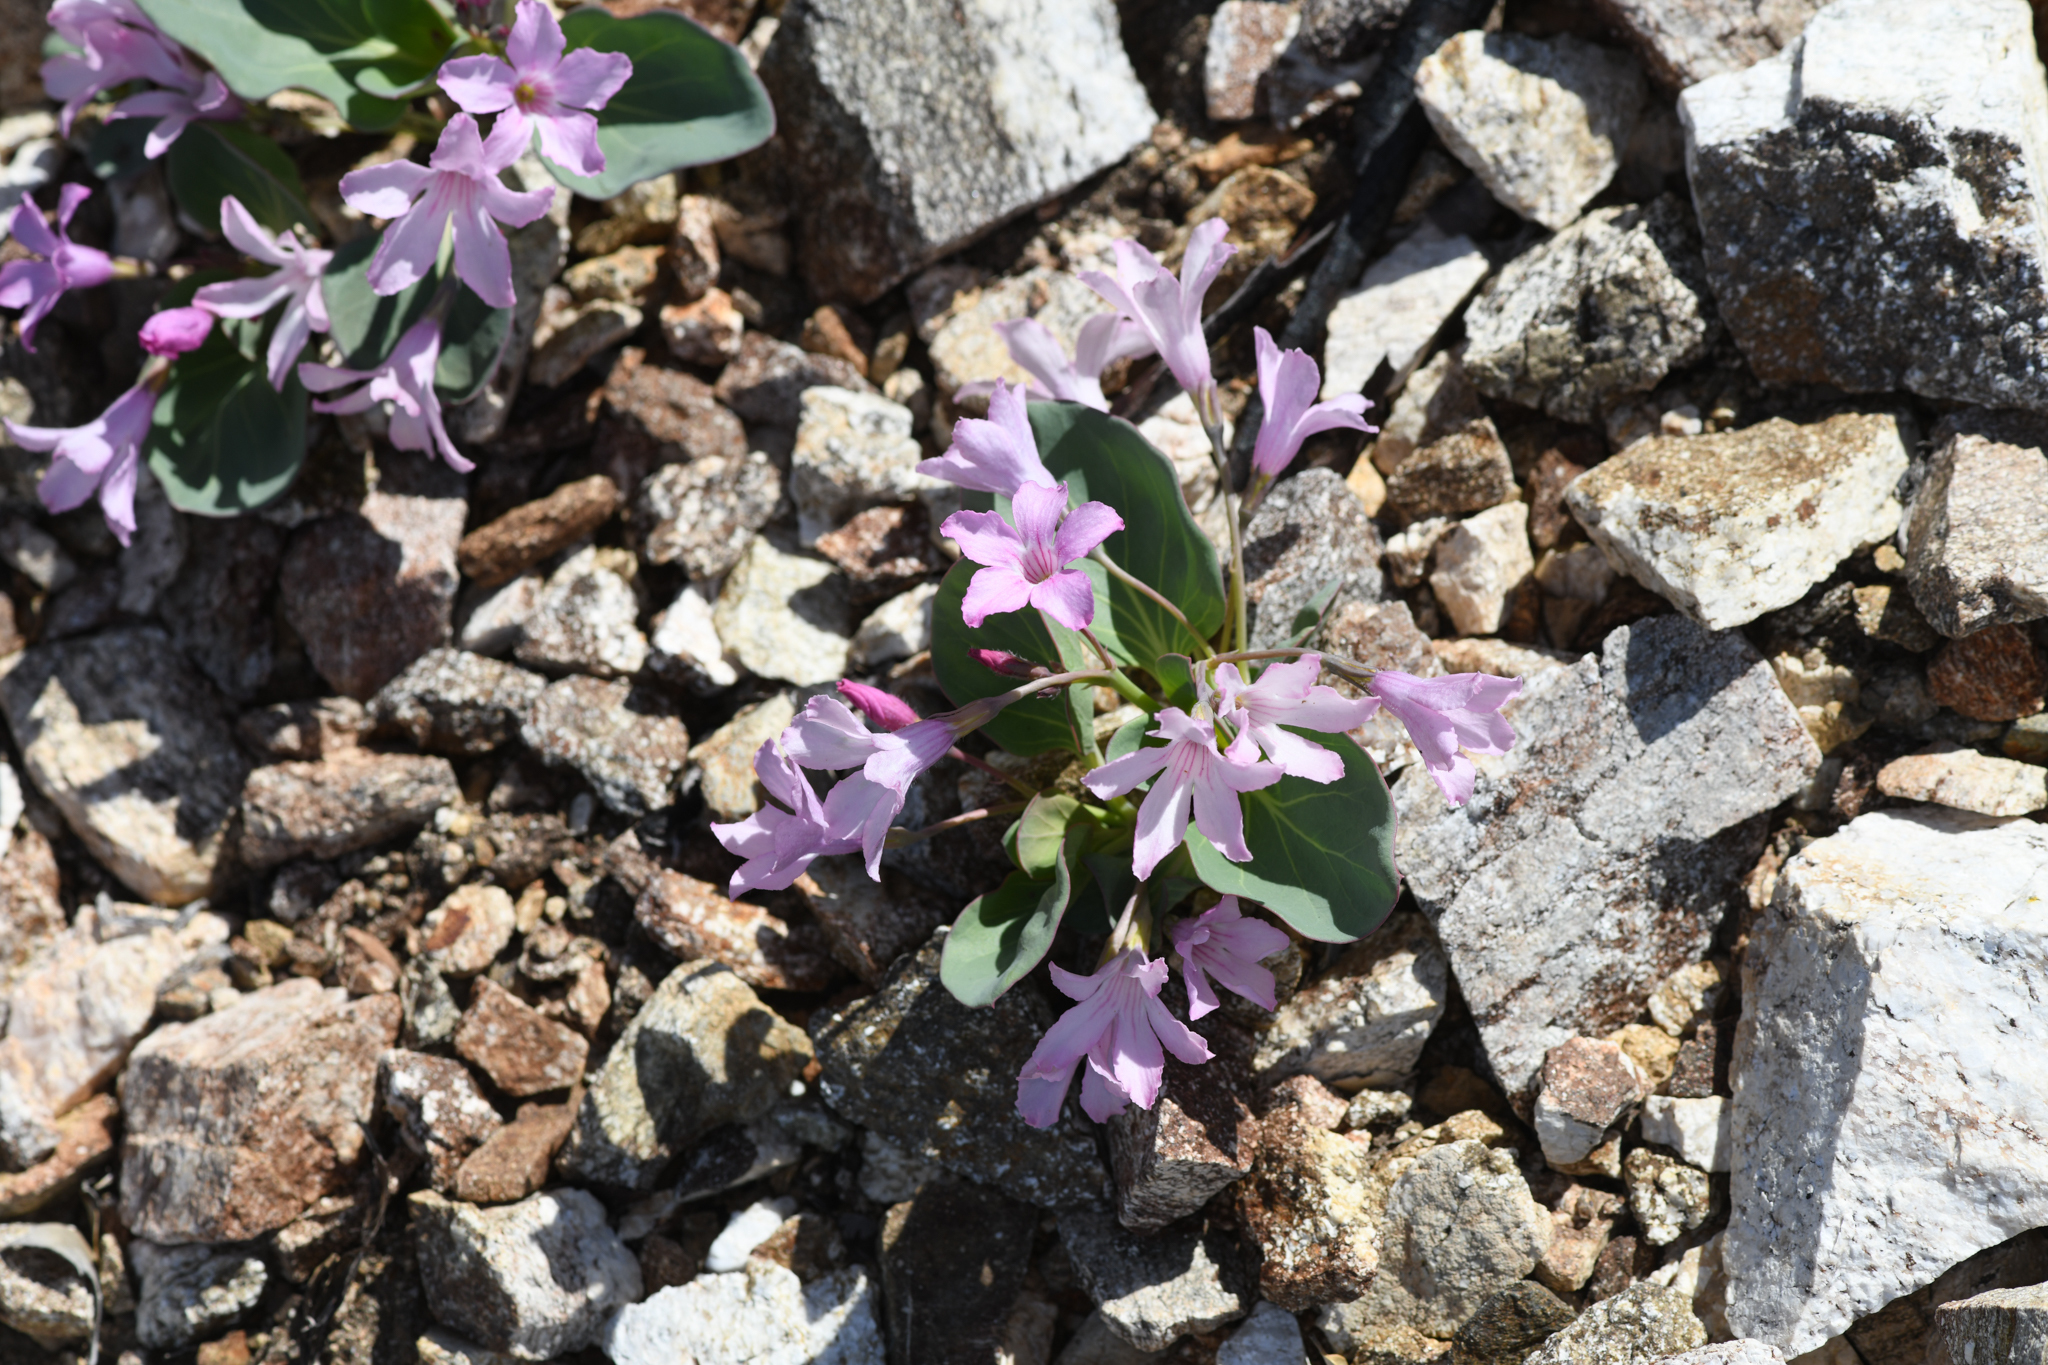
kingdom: Plantae
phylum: Tracheophyta
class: Magnoliopsida
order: Gentianales
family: Apocynaceae
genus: Cycladenia
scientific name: Cycladenia humilis
